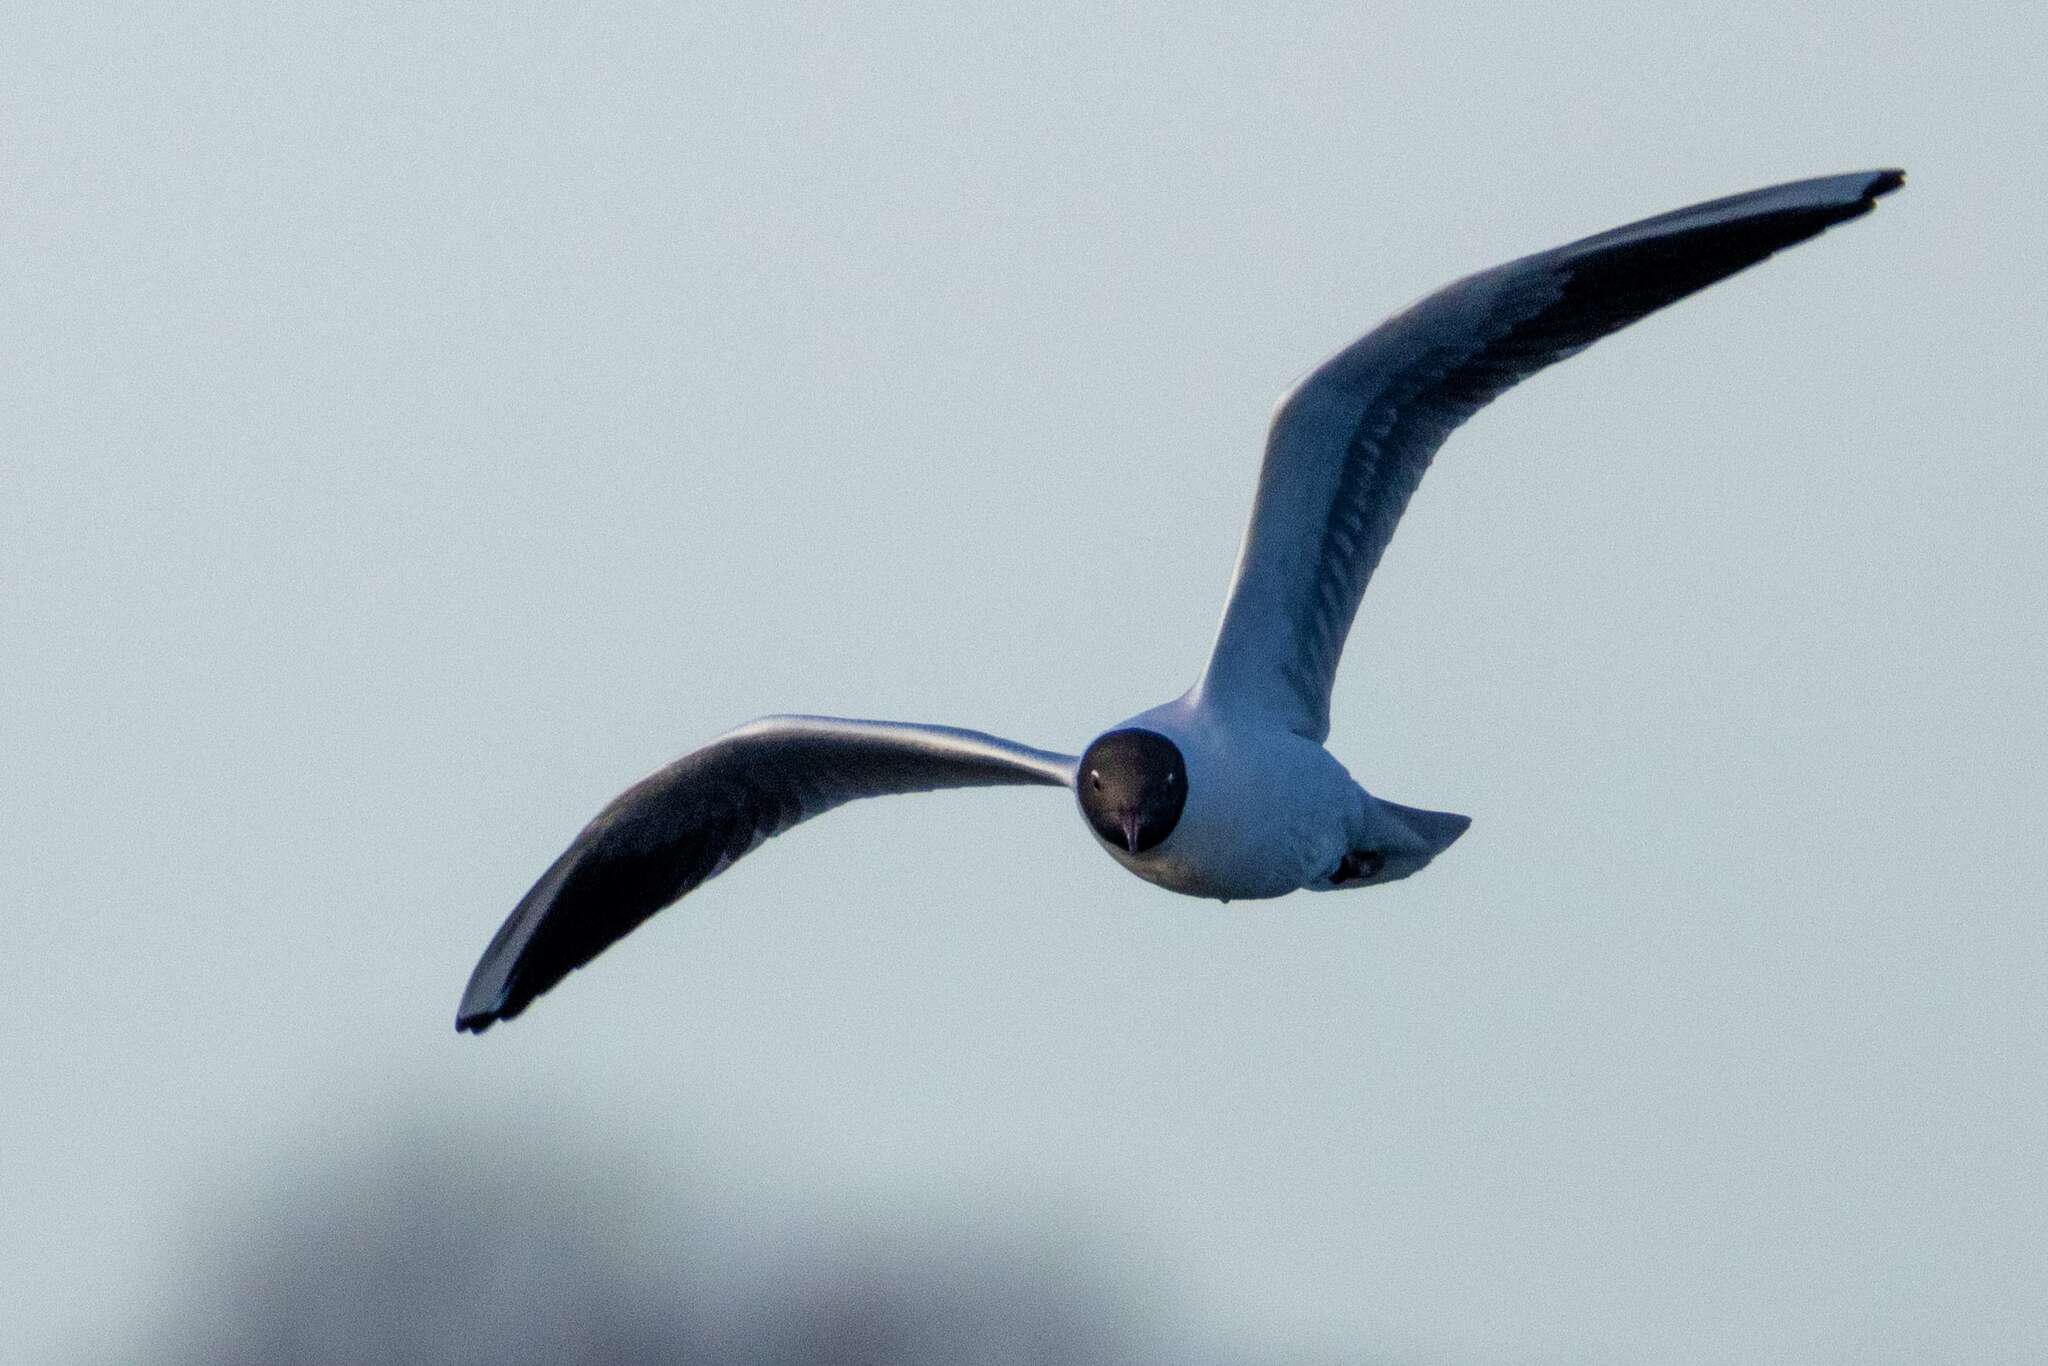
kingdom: Animalia
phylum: Chordata
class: Aves
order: Charadriiformes
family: Laridae
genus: Chroicocephalus
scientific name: Chroicocephalus ridibundus
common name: Black-headed gull
